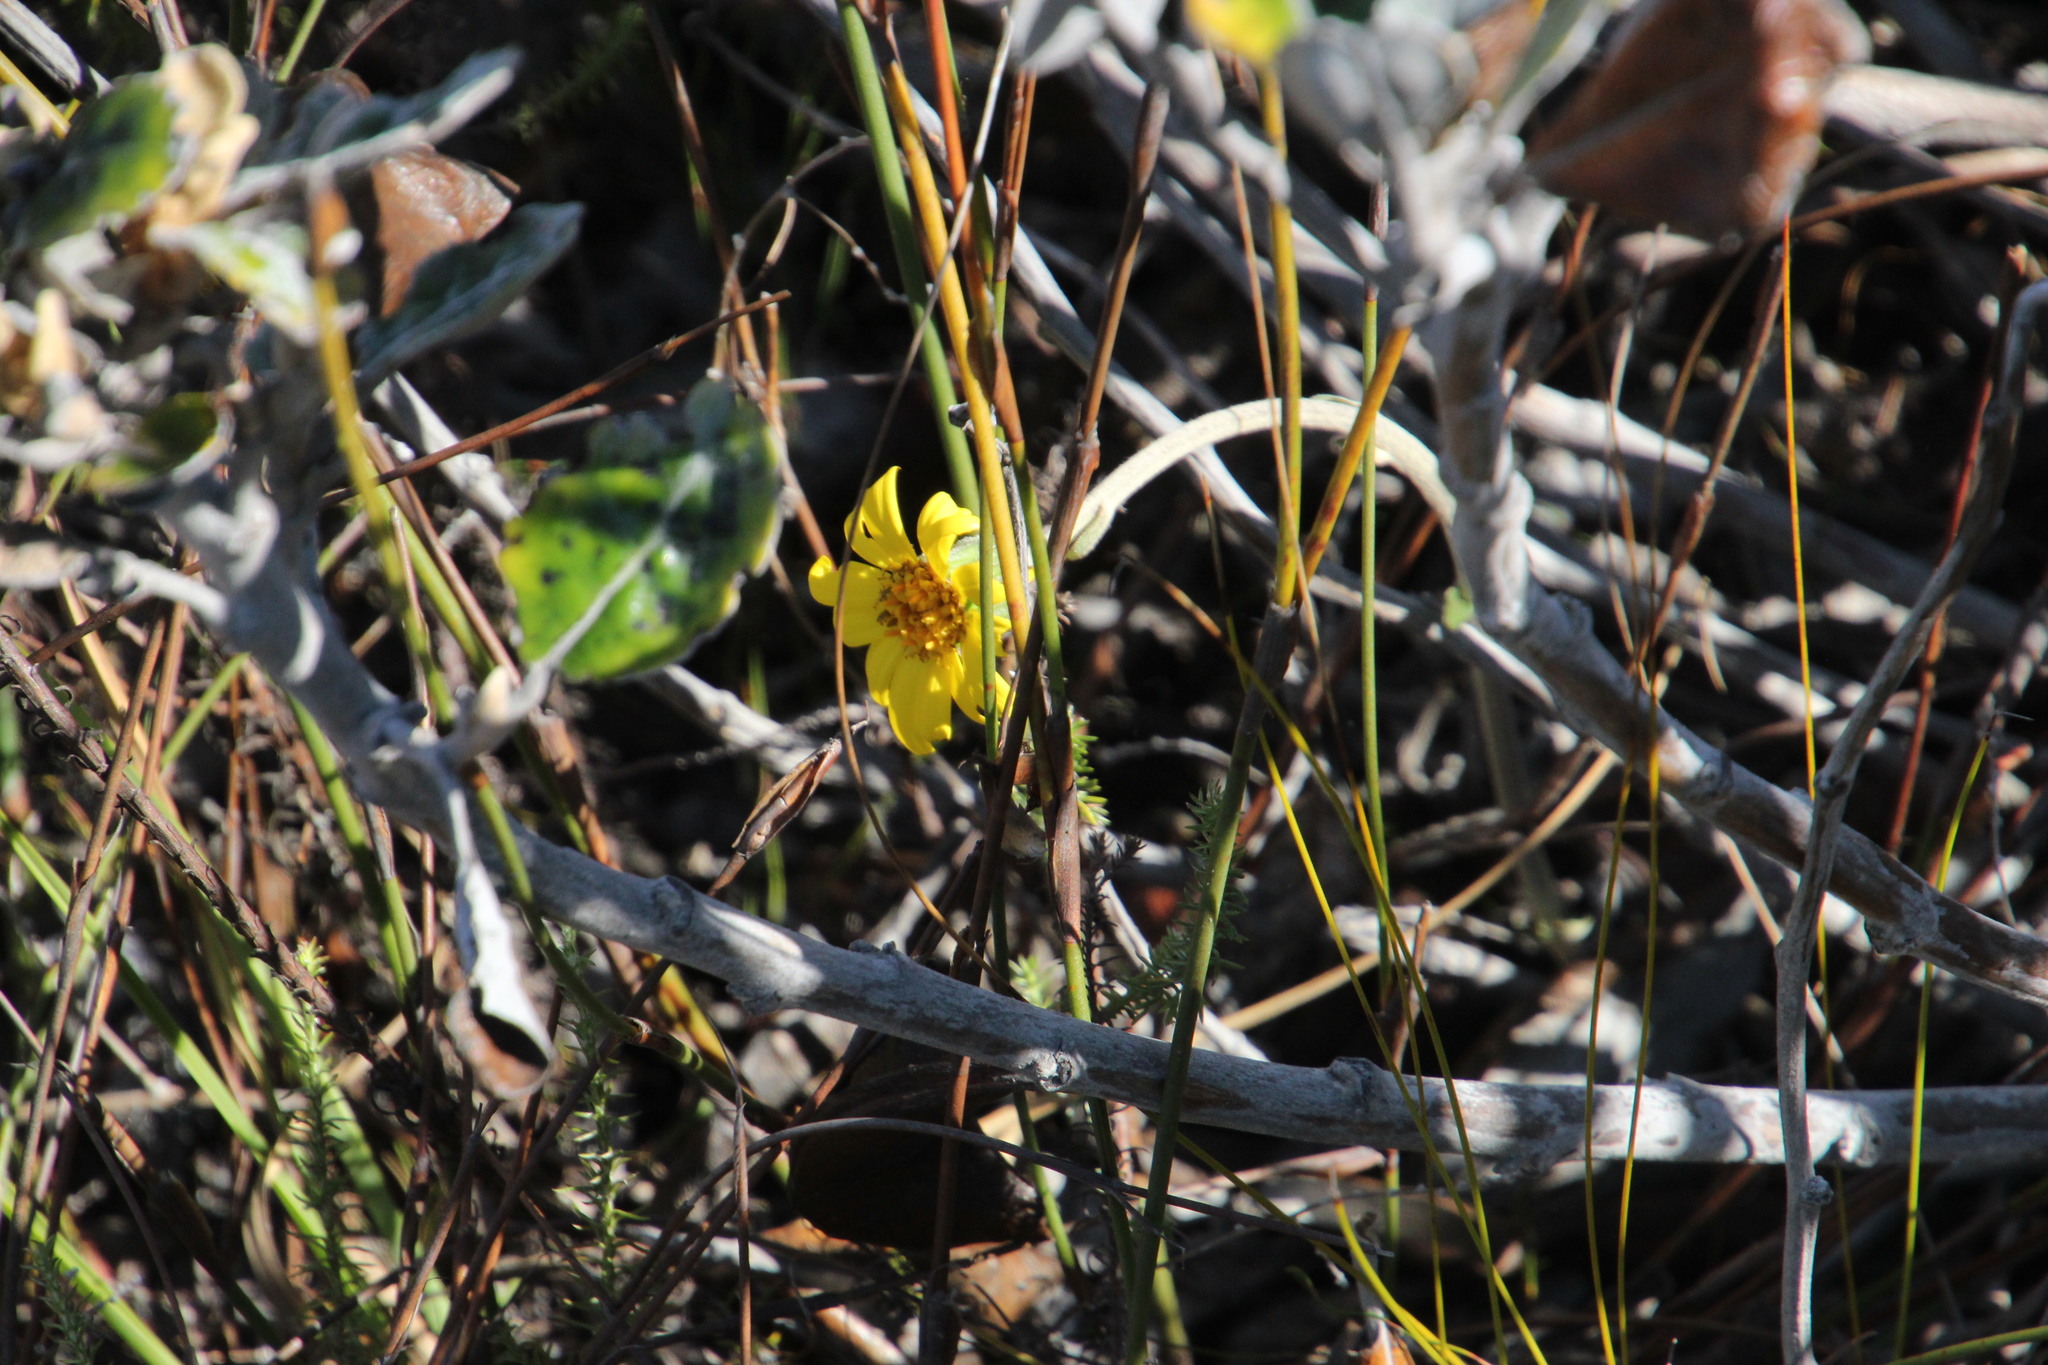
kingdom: Plantae
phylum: Tracheophyta
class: Magnoliopsida
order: Asterales
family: Asteraceae
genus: Capelio
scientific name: Capelio tabularis
